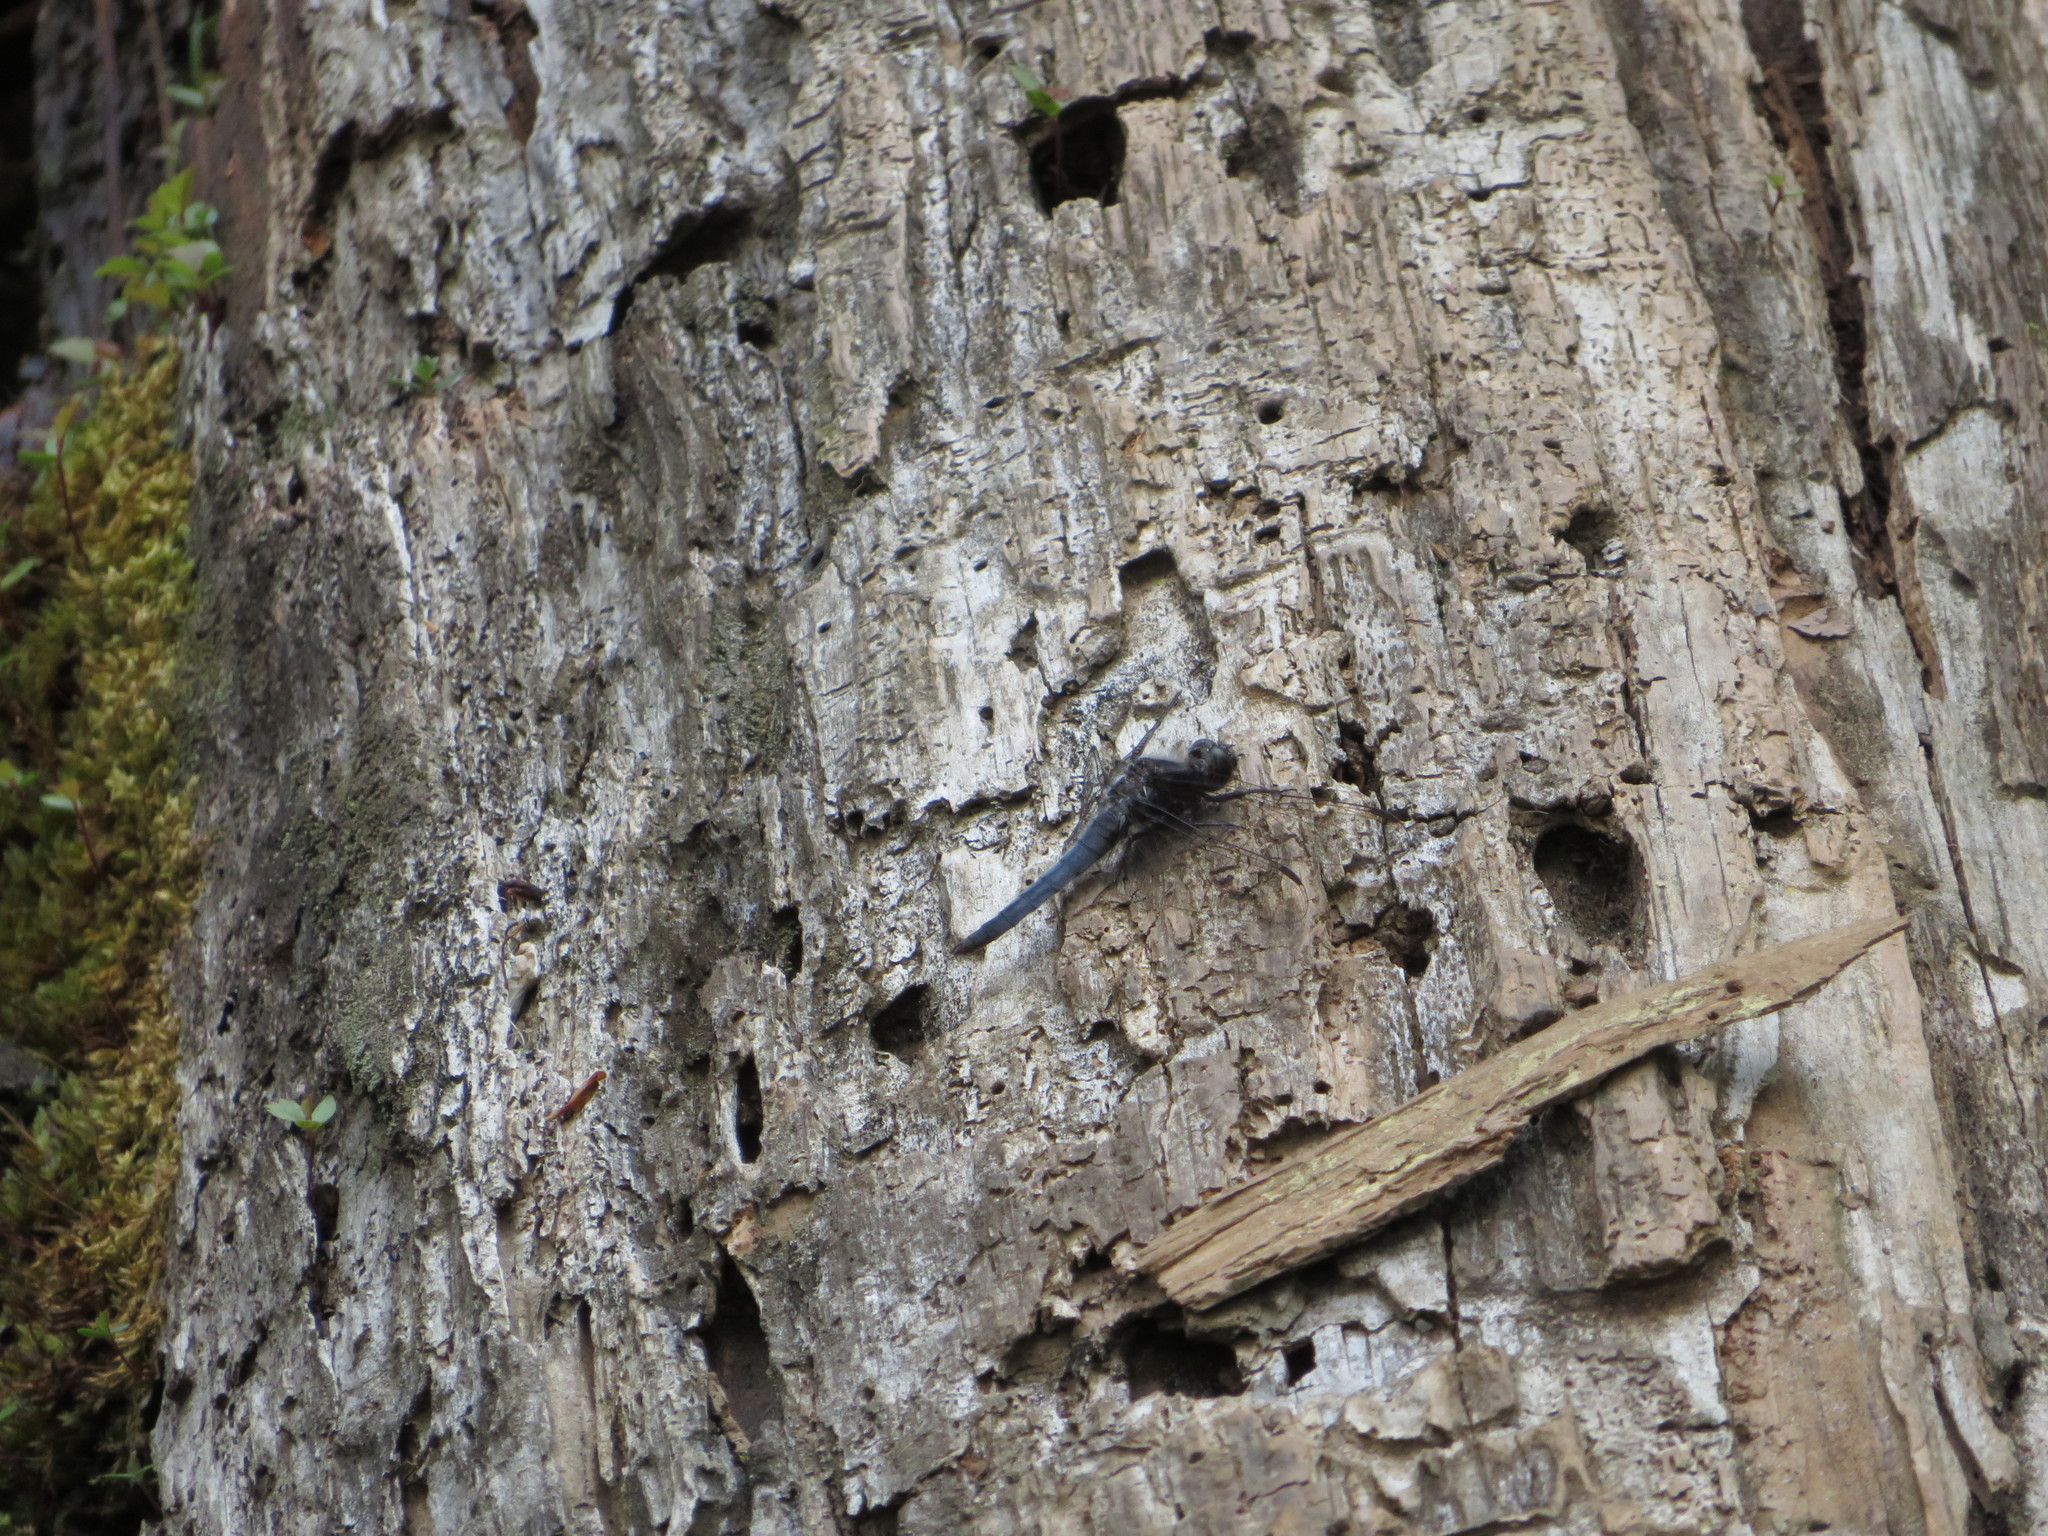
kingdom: Animalia
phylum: Arthropoda
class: Insecta
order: Odonata
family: Libellulidae
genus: Ladona
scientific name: Ladona deplanata
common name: Blue corporal
